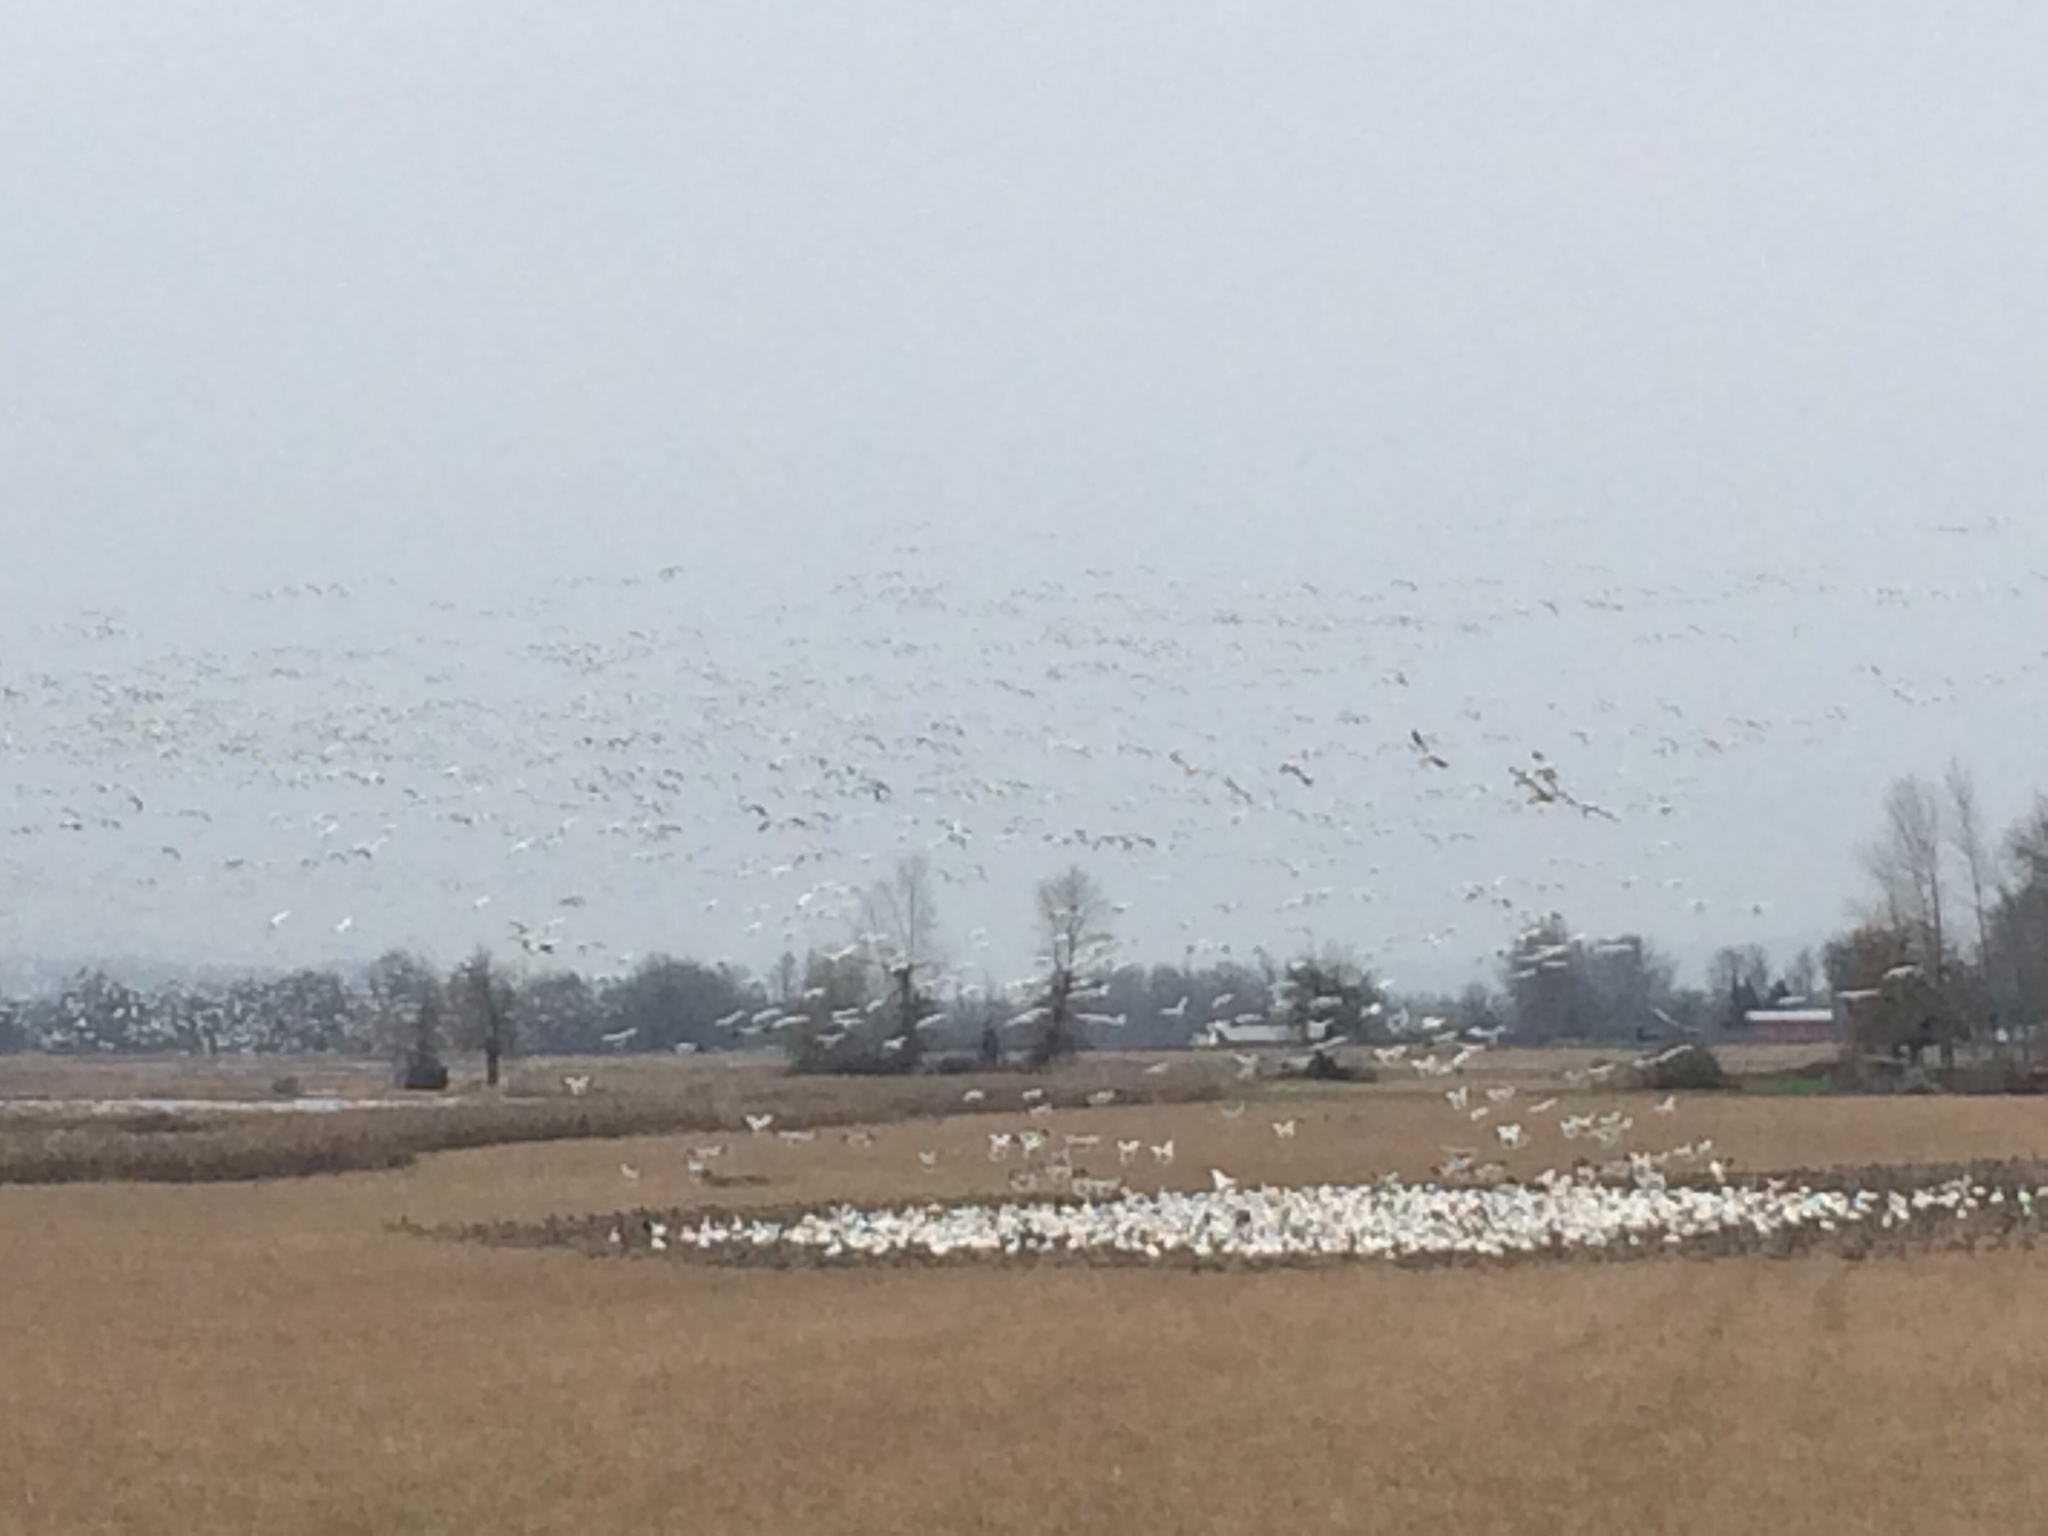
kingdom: Animalia
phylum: Chordata
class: Aves
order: Anseriformes
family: Anatidae
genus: Anser
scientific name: Anser caerulescens
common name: Snow goose
